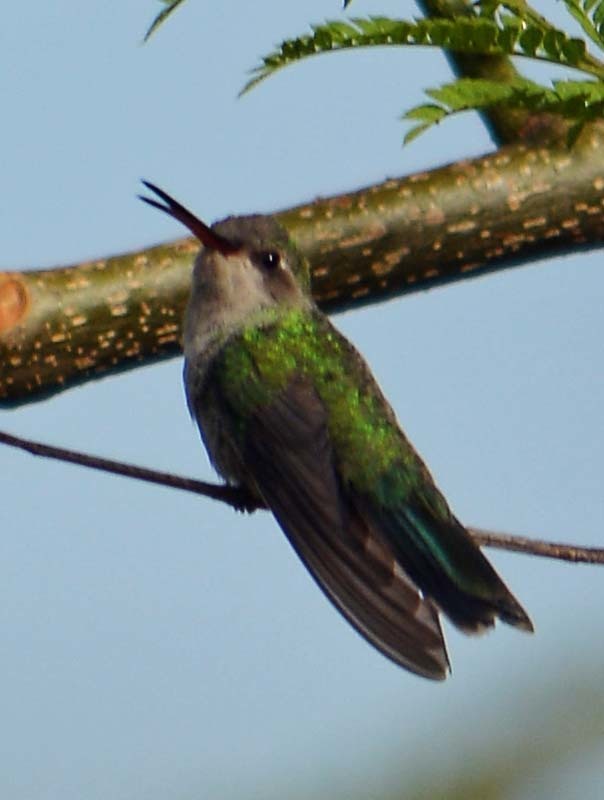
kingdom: Animalia
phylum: Chordata
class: Aves
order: Apodiformes
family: Trochilidae
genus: Cynanthus
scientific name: Cynanthus latirostris
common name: Broad-billed hummingbird
